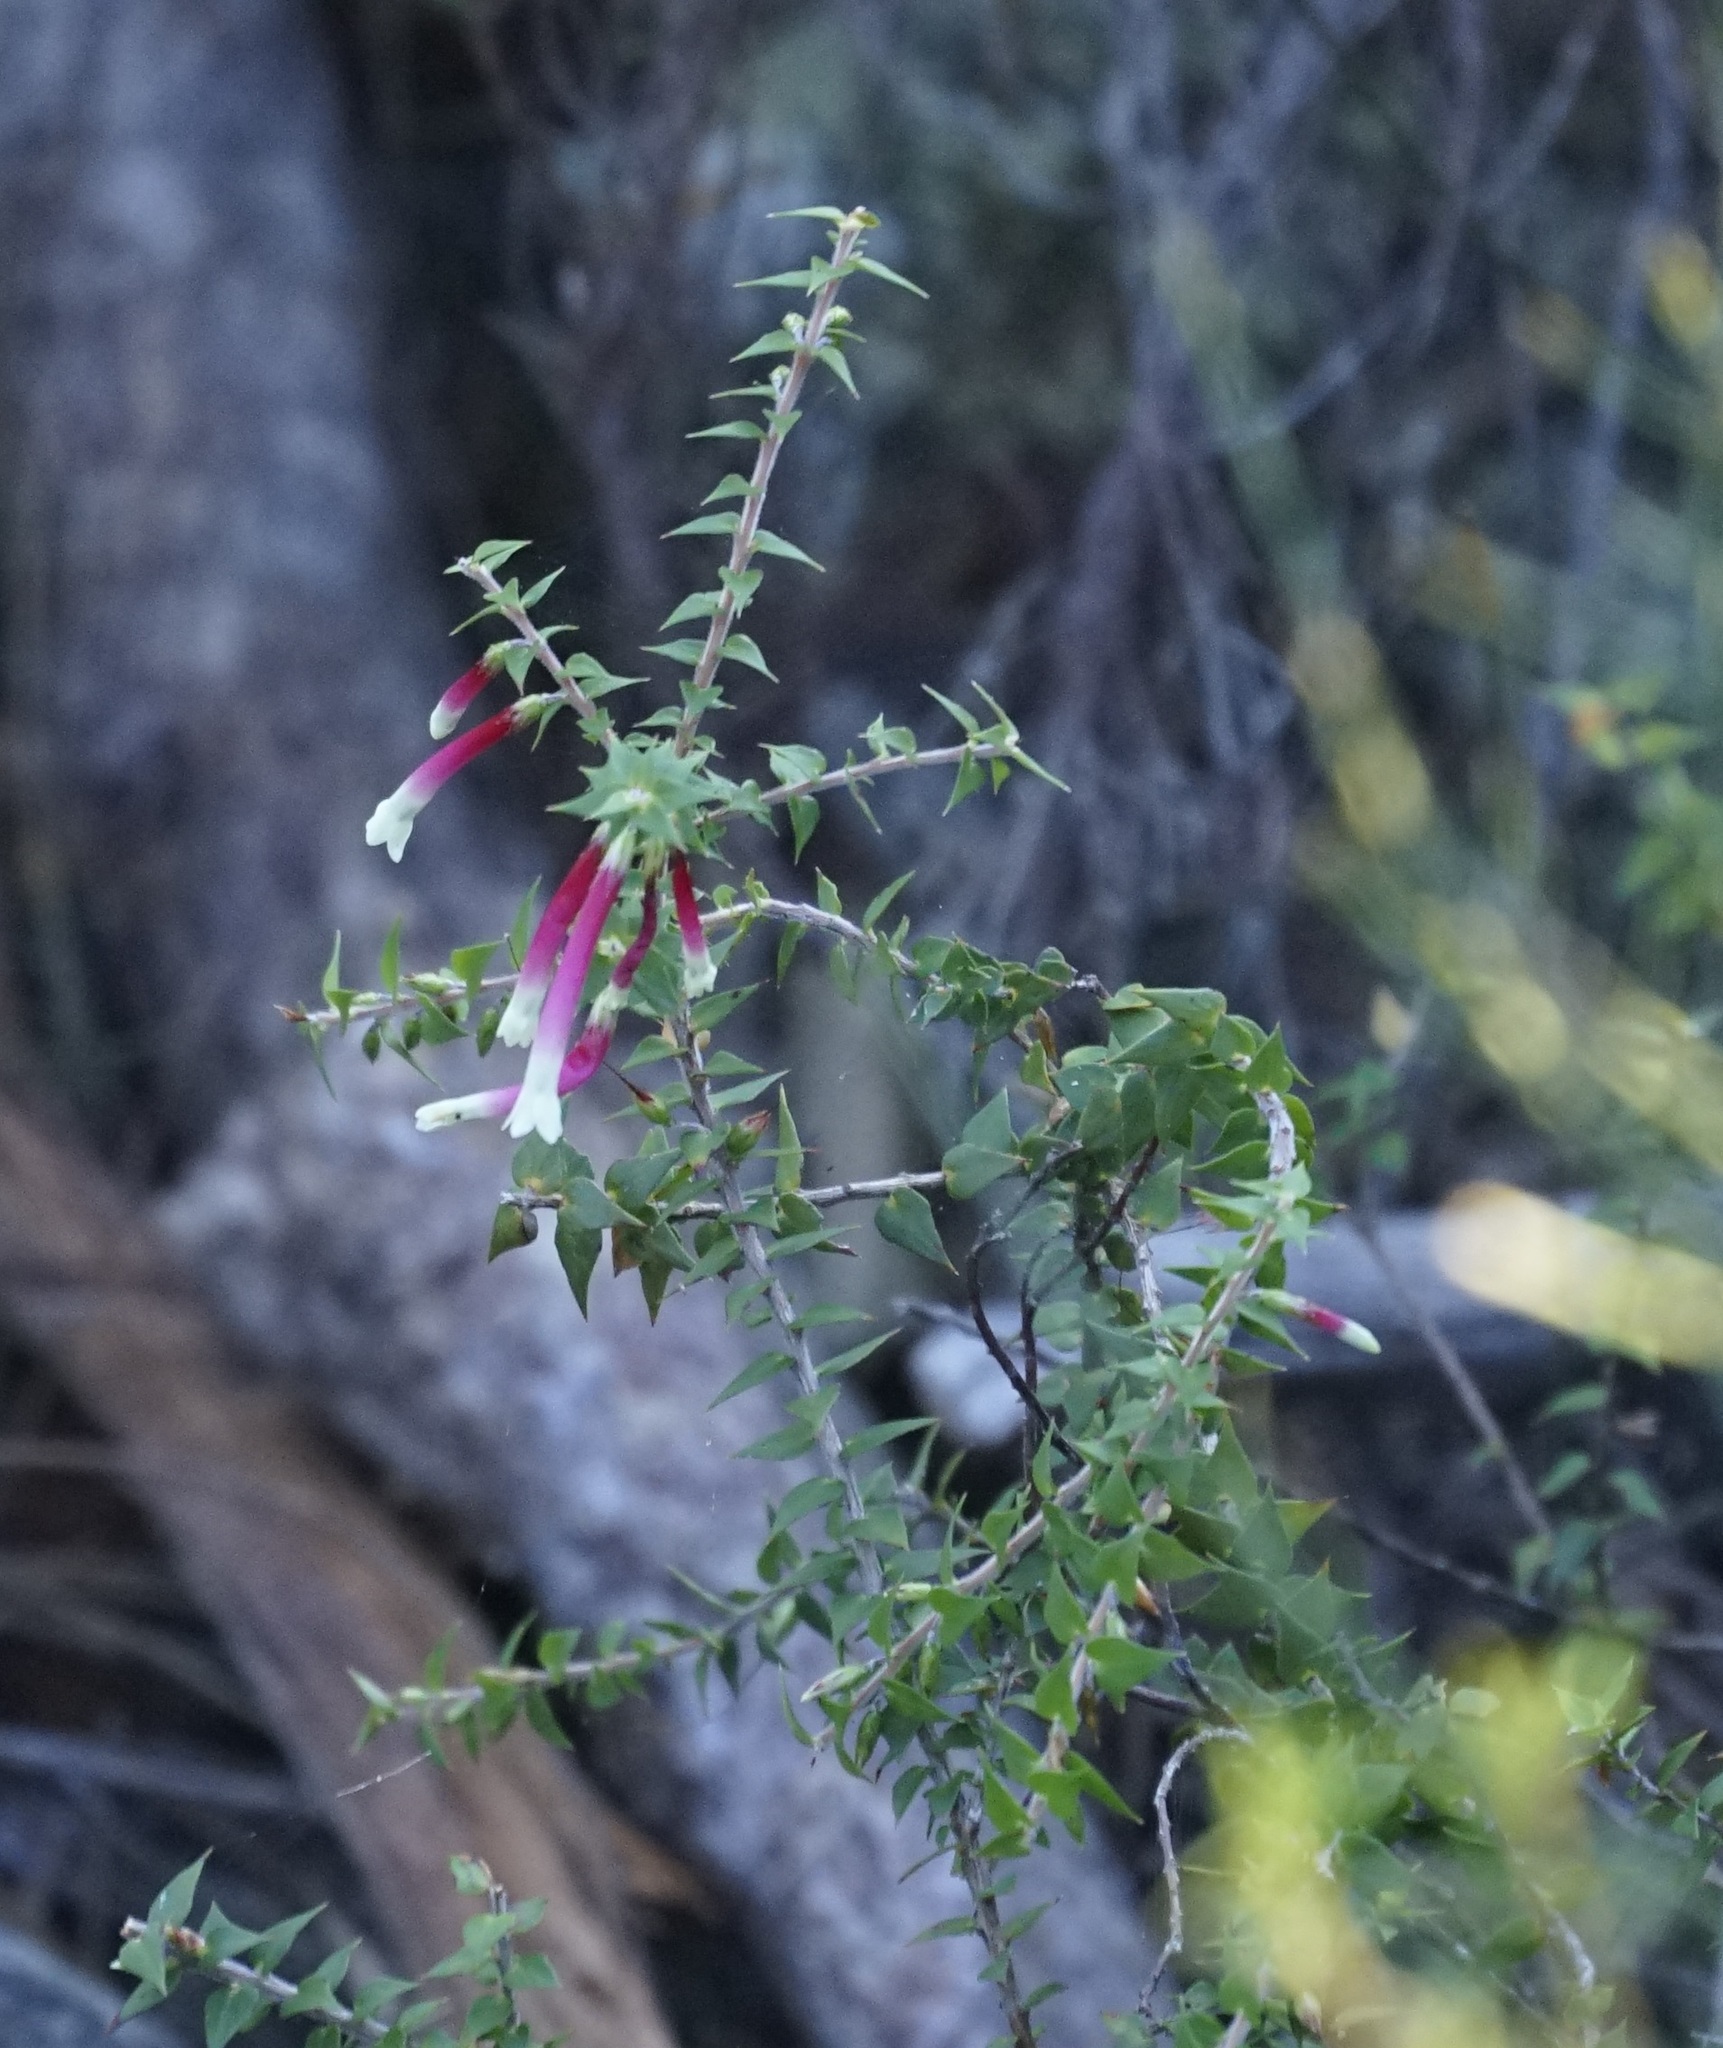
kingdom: Plantae
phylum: Tracheophyta
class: Magnoliopsida
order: Ericales
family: Ericaceae
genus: Epacris
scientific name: Epacris longiflora
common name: Fuchsia-heath
